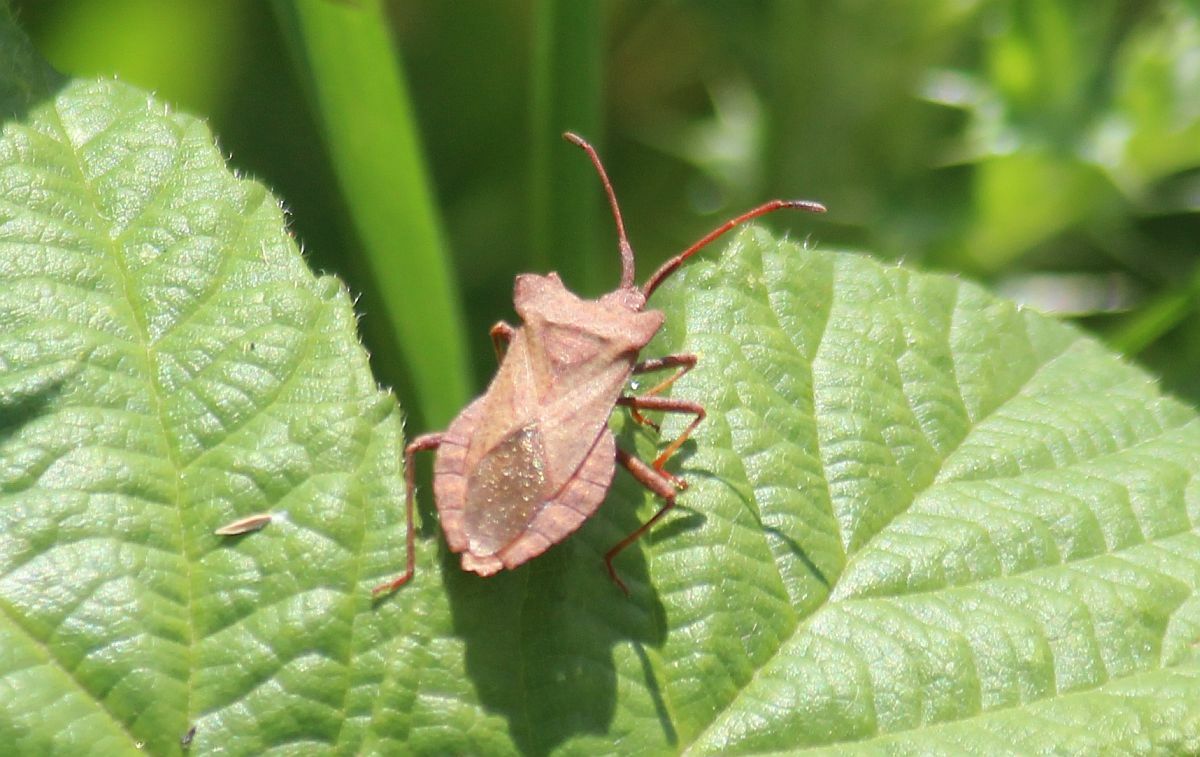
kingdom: Animalia
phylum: Arthropoda
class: Insecta
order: Hemiptera
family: Coreidae
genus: Coreus
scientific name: Coreus marginatus
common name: Dock bug
